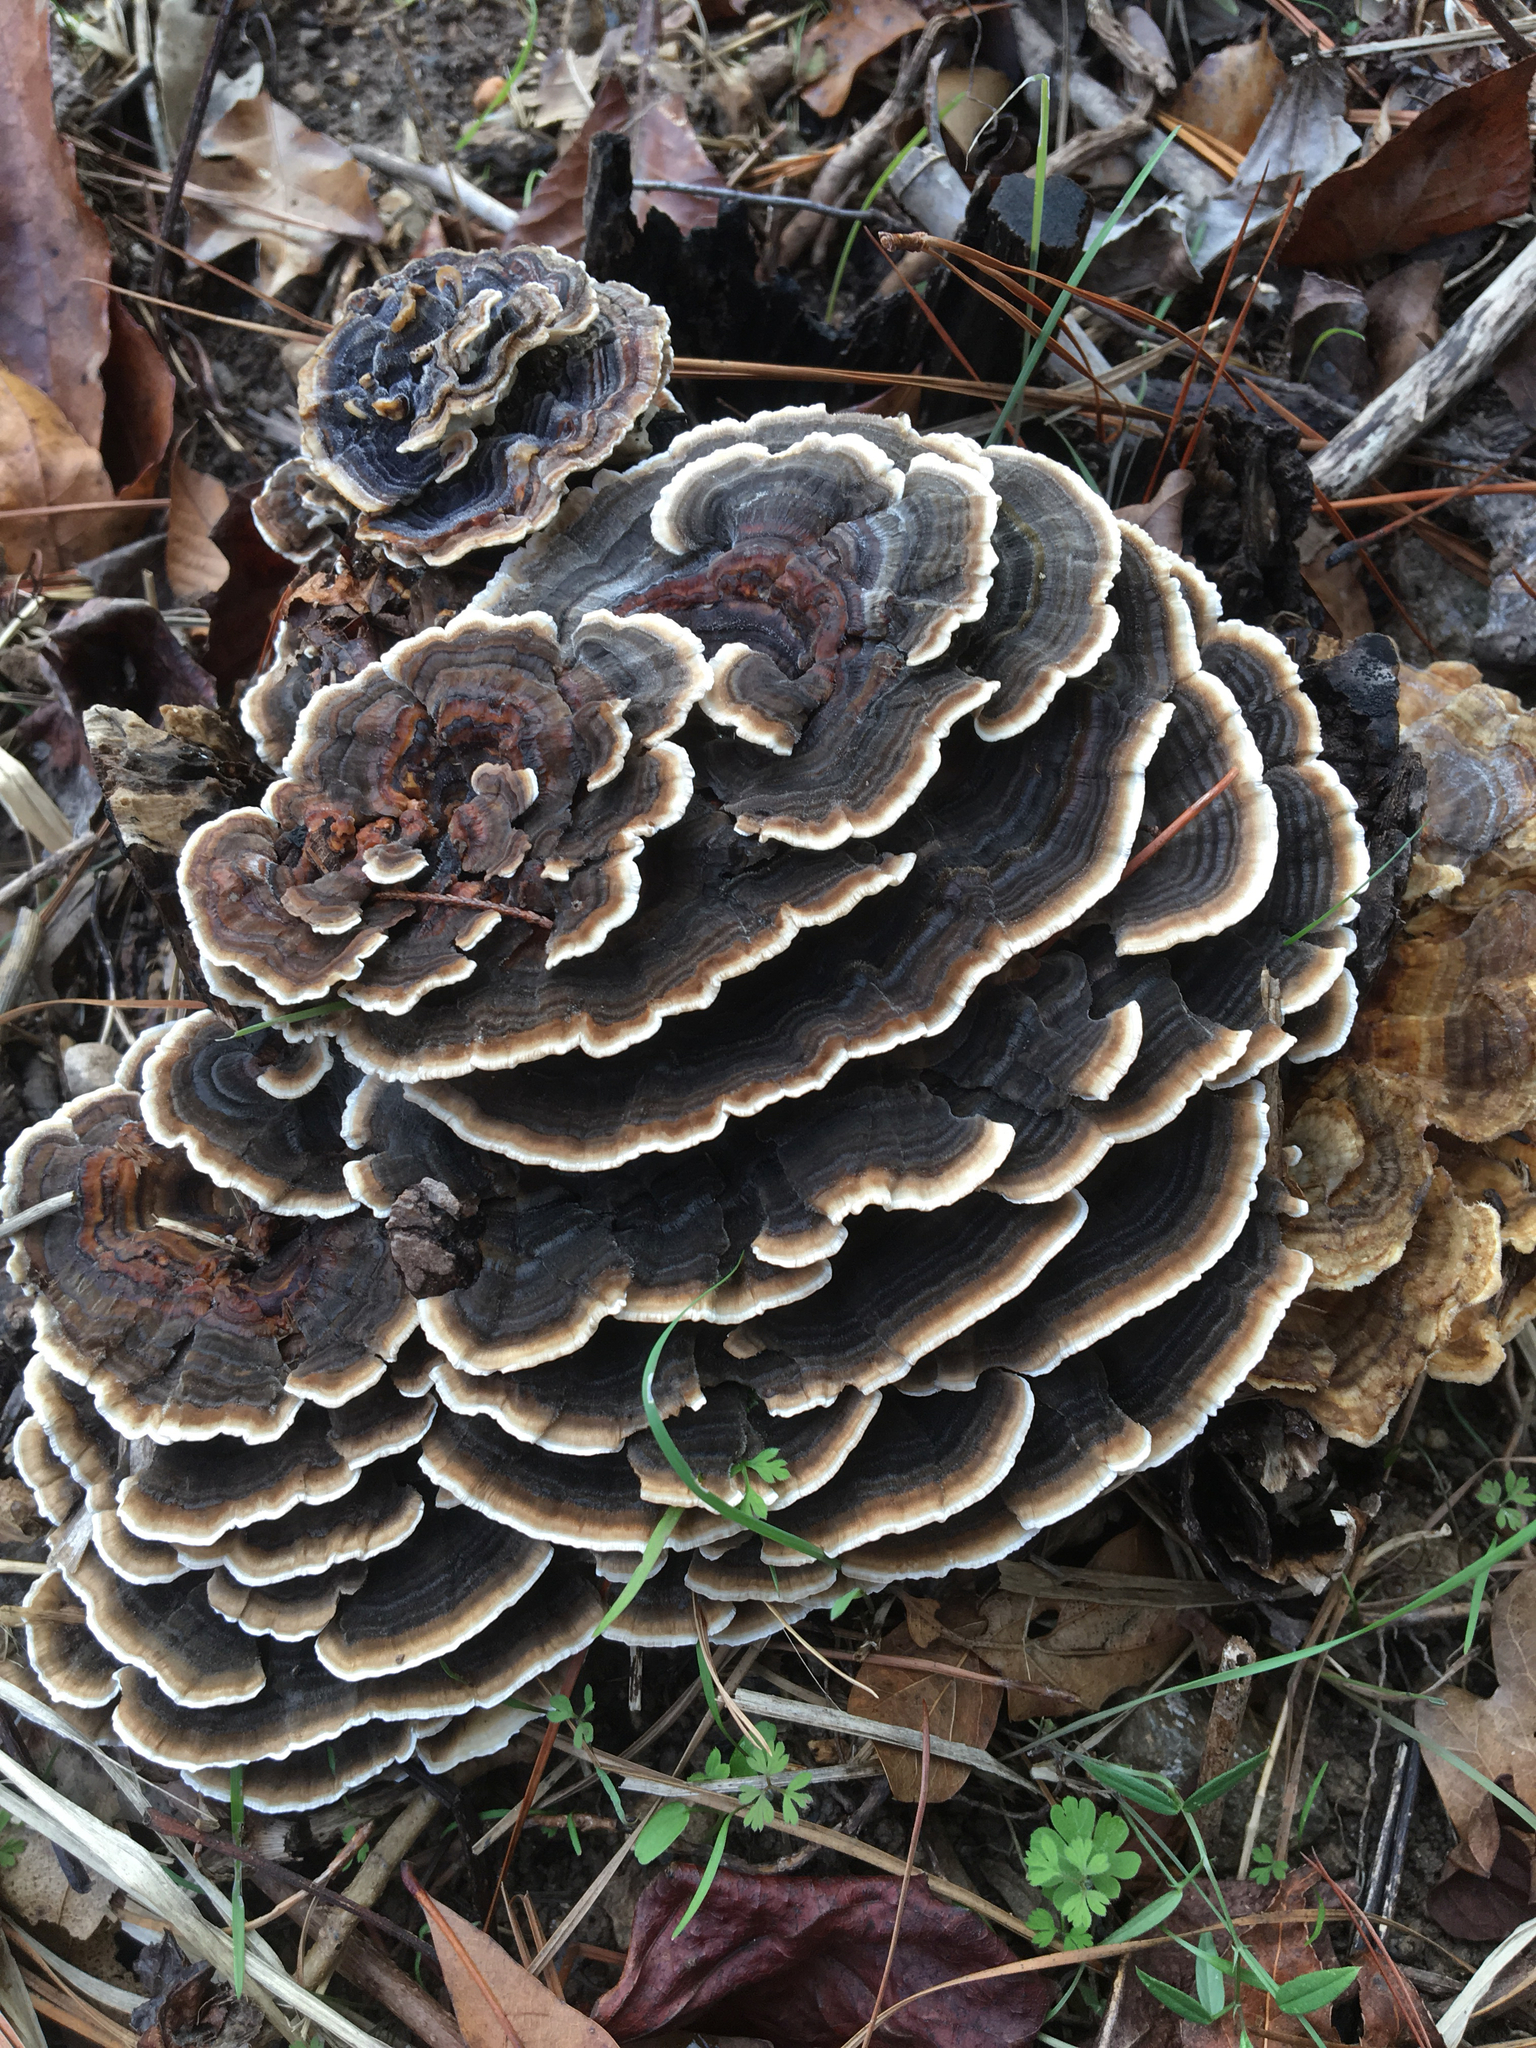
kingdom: Fungi
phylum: Basidiomycota
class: Agaricomycetes
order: Polyporales
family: Polyporaceae
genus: Trametes
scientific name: Trametes versicolor
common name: Turkeytail
